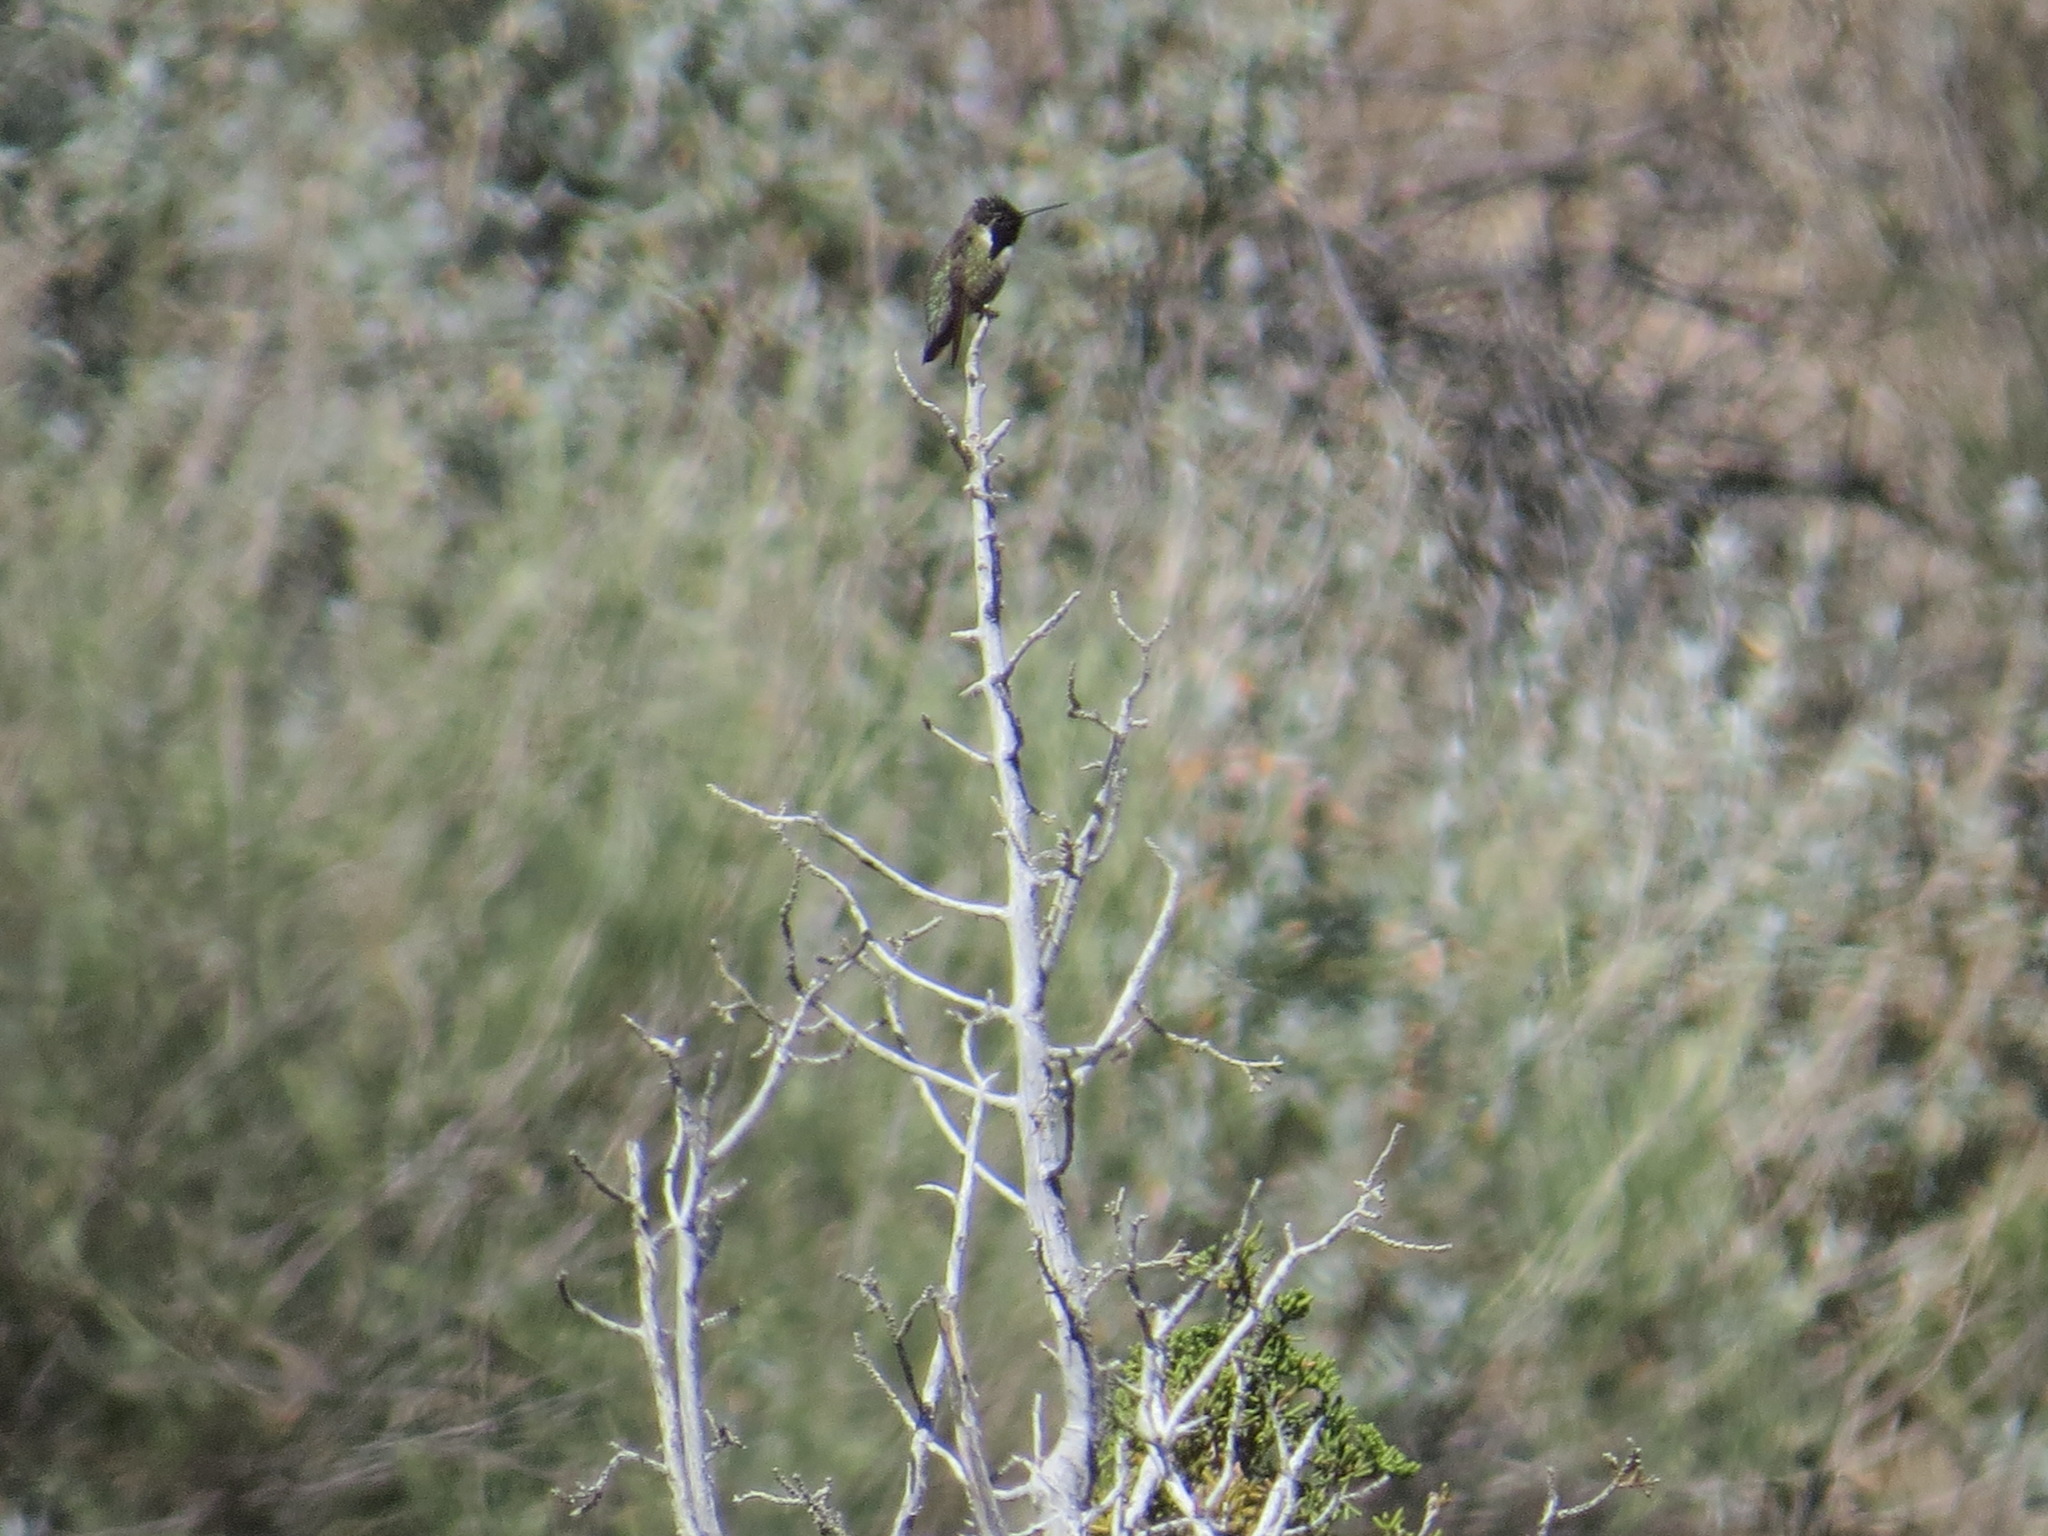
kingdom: Animalia
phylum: Chordata
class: Aves
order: Apodiformes
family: Trochilidae
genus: Calypte
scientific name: Calypte costae
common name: Costa's hummingbird
